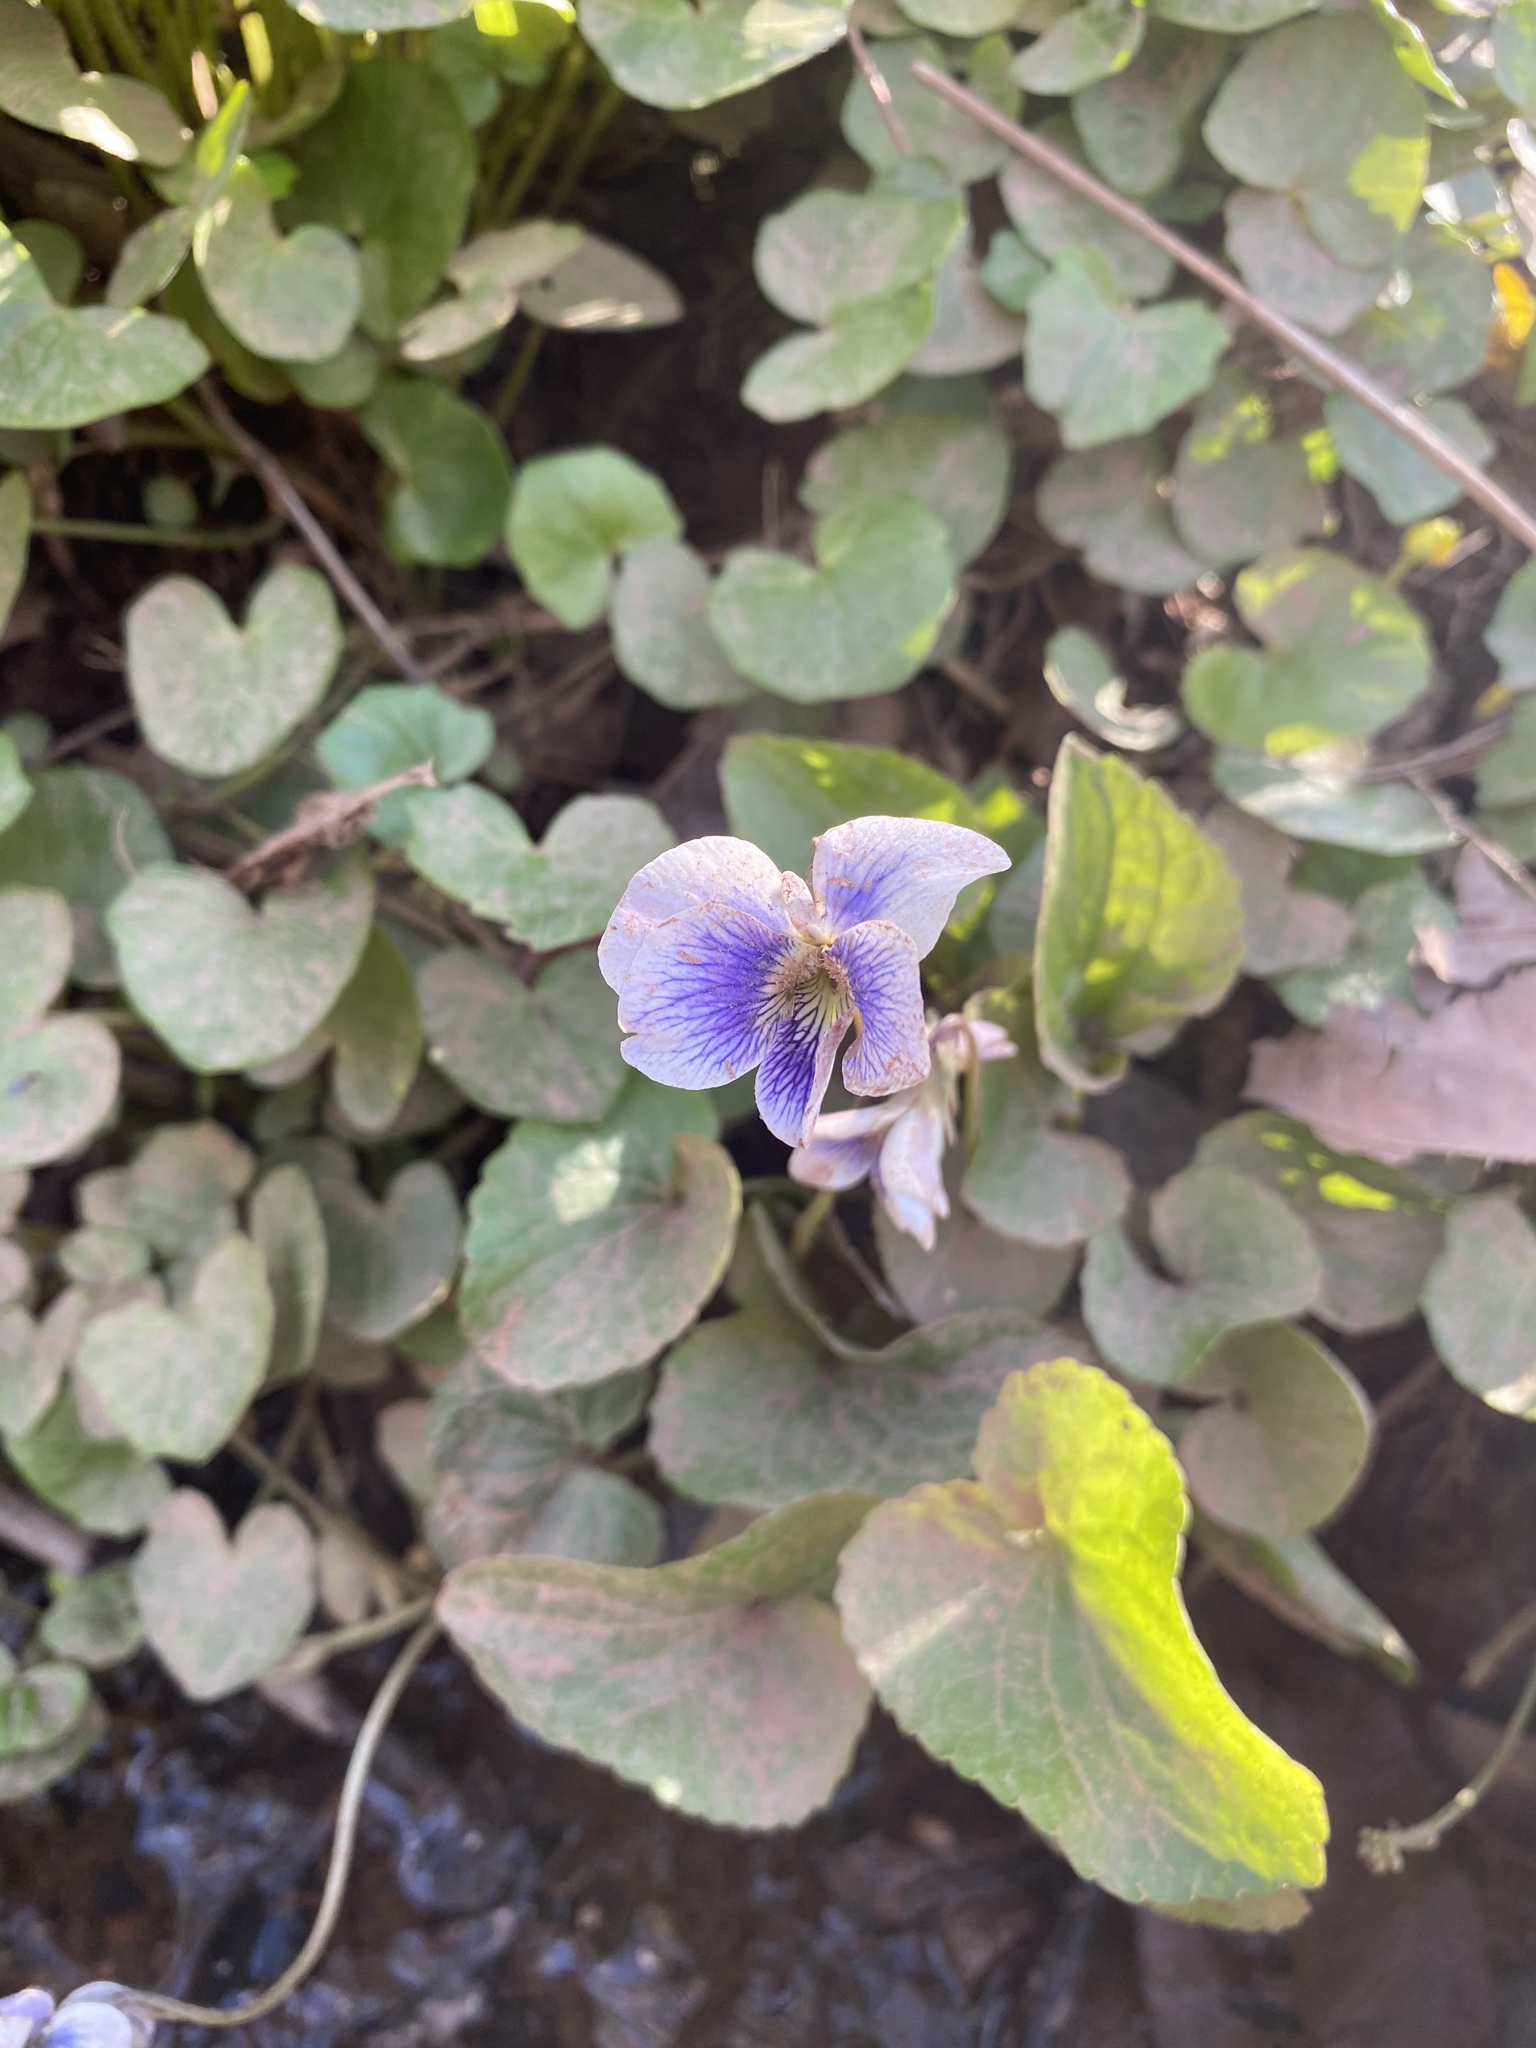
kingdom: Plantae
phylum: Tracheophyta
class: Magnoliopsida
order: Malpighiales
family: Violaceae
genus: Viola
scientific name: Viola sororia
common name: Dooryard violet
